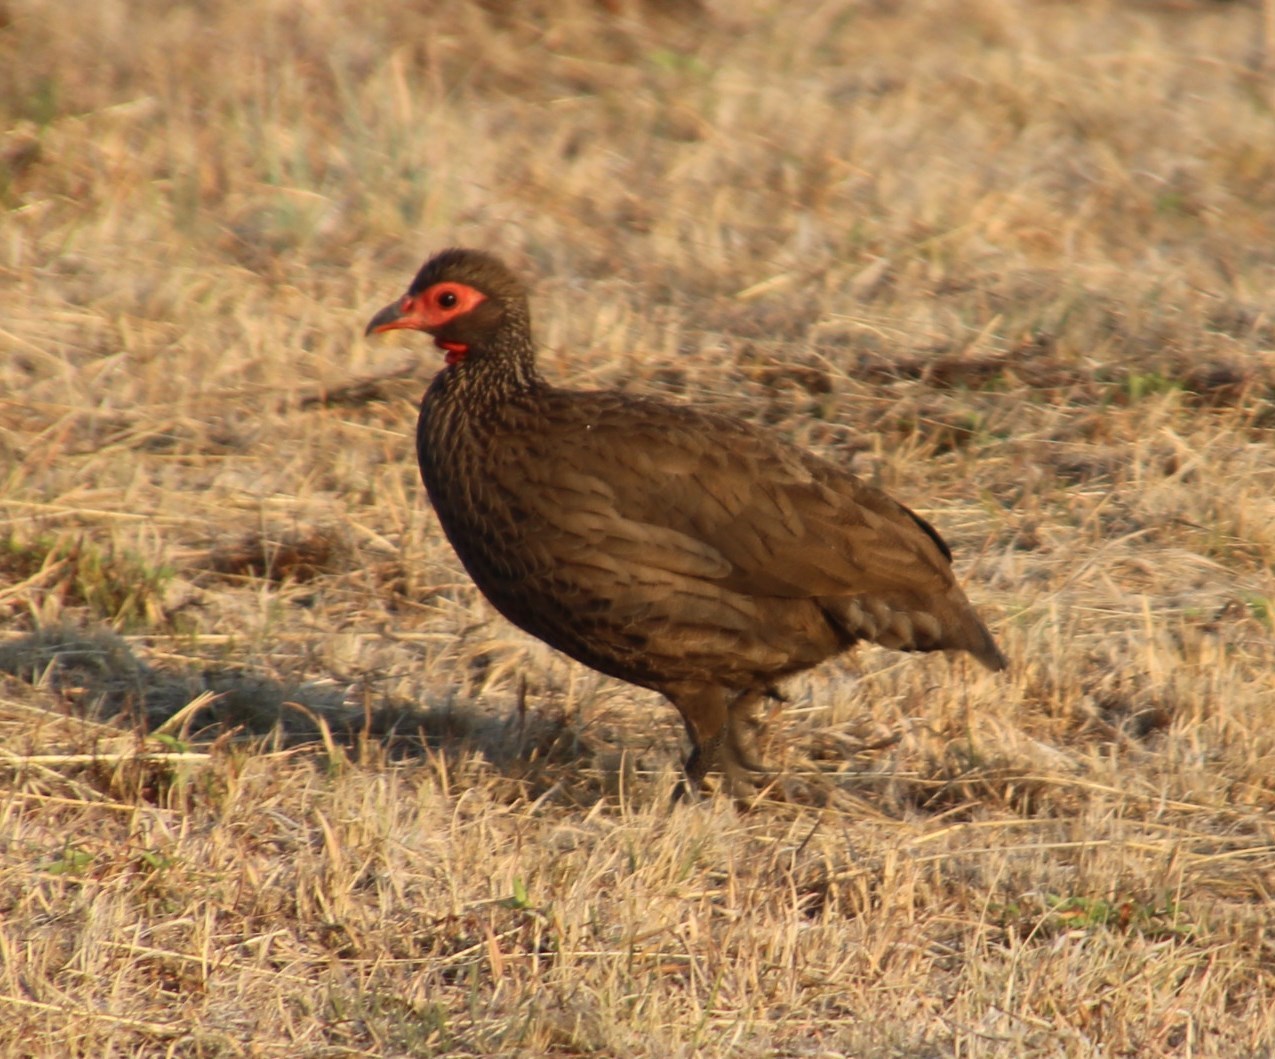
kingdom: Animalia
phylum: Chordata
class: Aves
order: Galliformes
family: Phasianidae
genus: Pternistis
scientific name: Pternistis swainsonii
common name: Swainson's spurfowl
